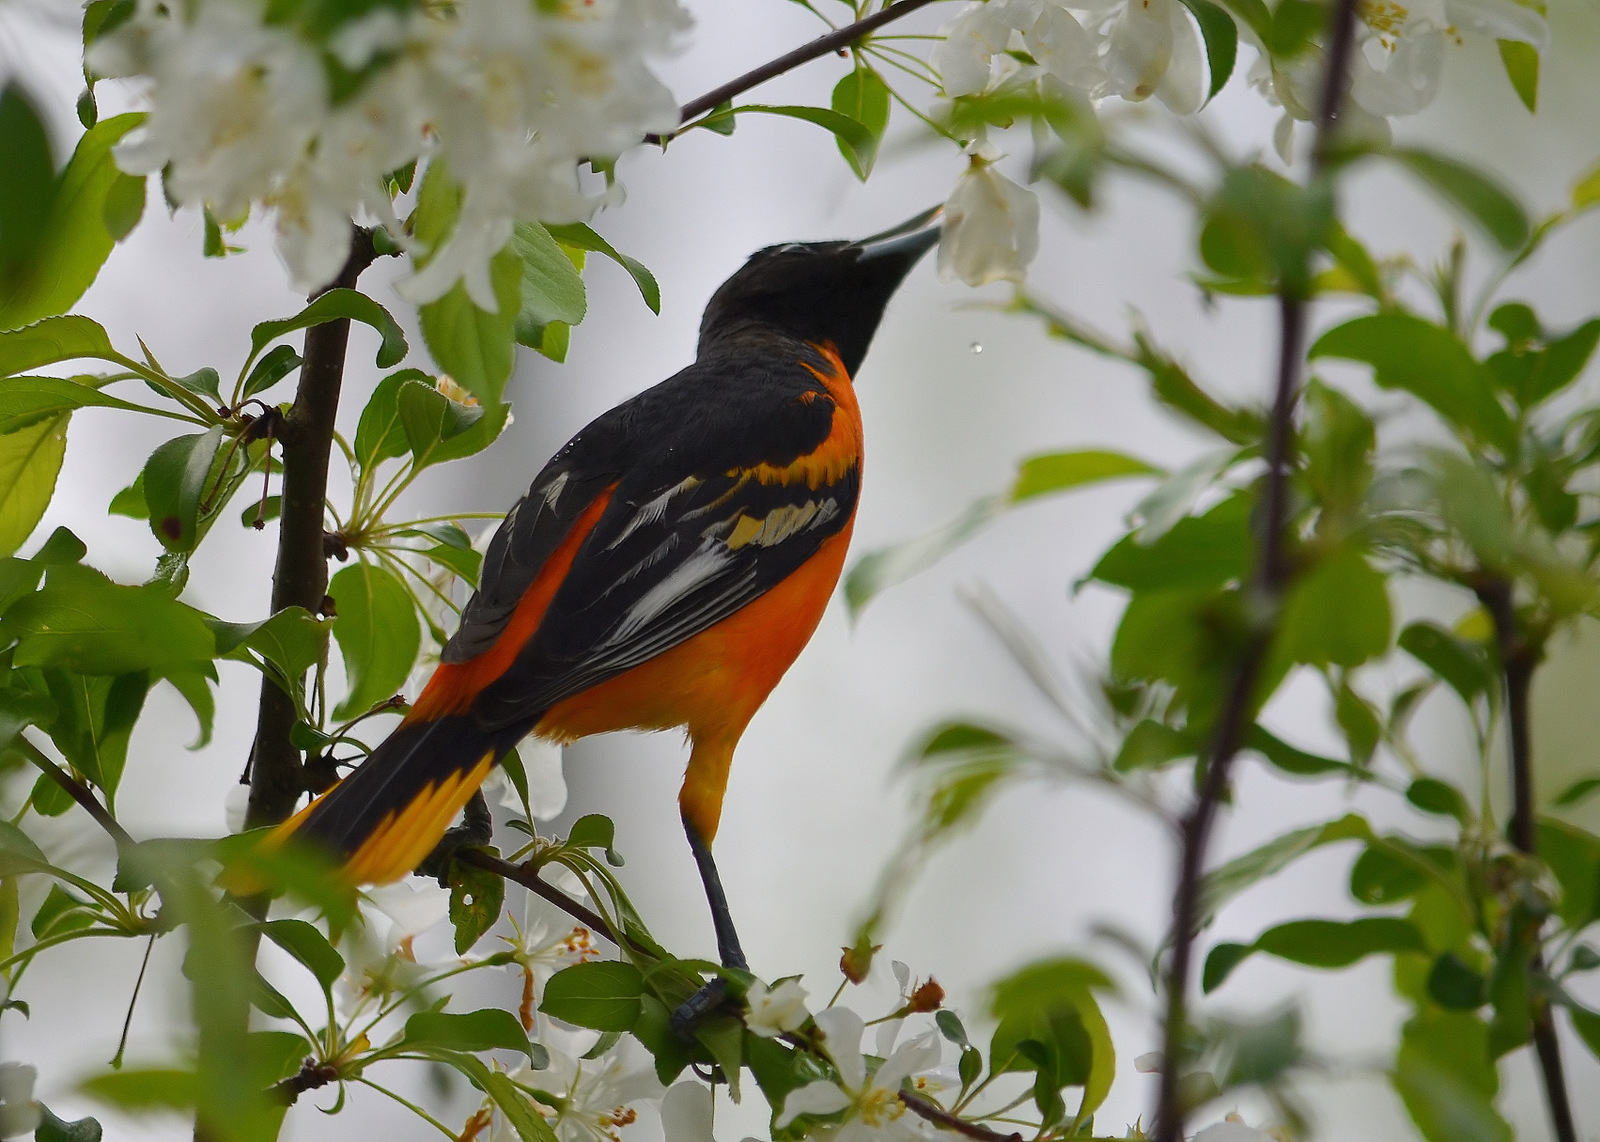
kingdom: Animalia
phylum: Chordata
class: Aves
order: Passeriformes
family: Icteridae
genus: Icterus
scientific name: Icterus galbula
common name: Baltimore oriole
